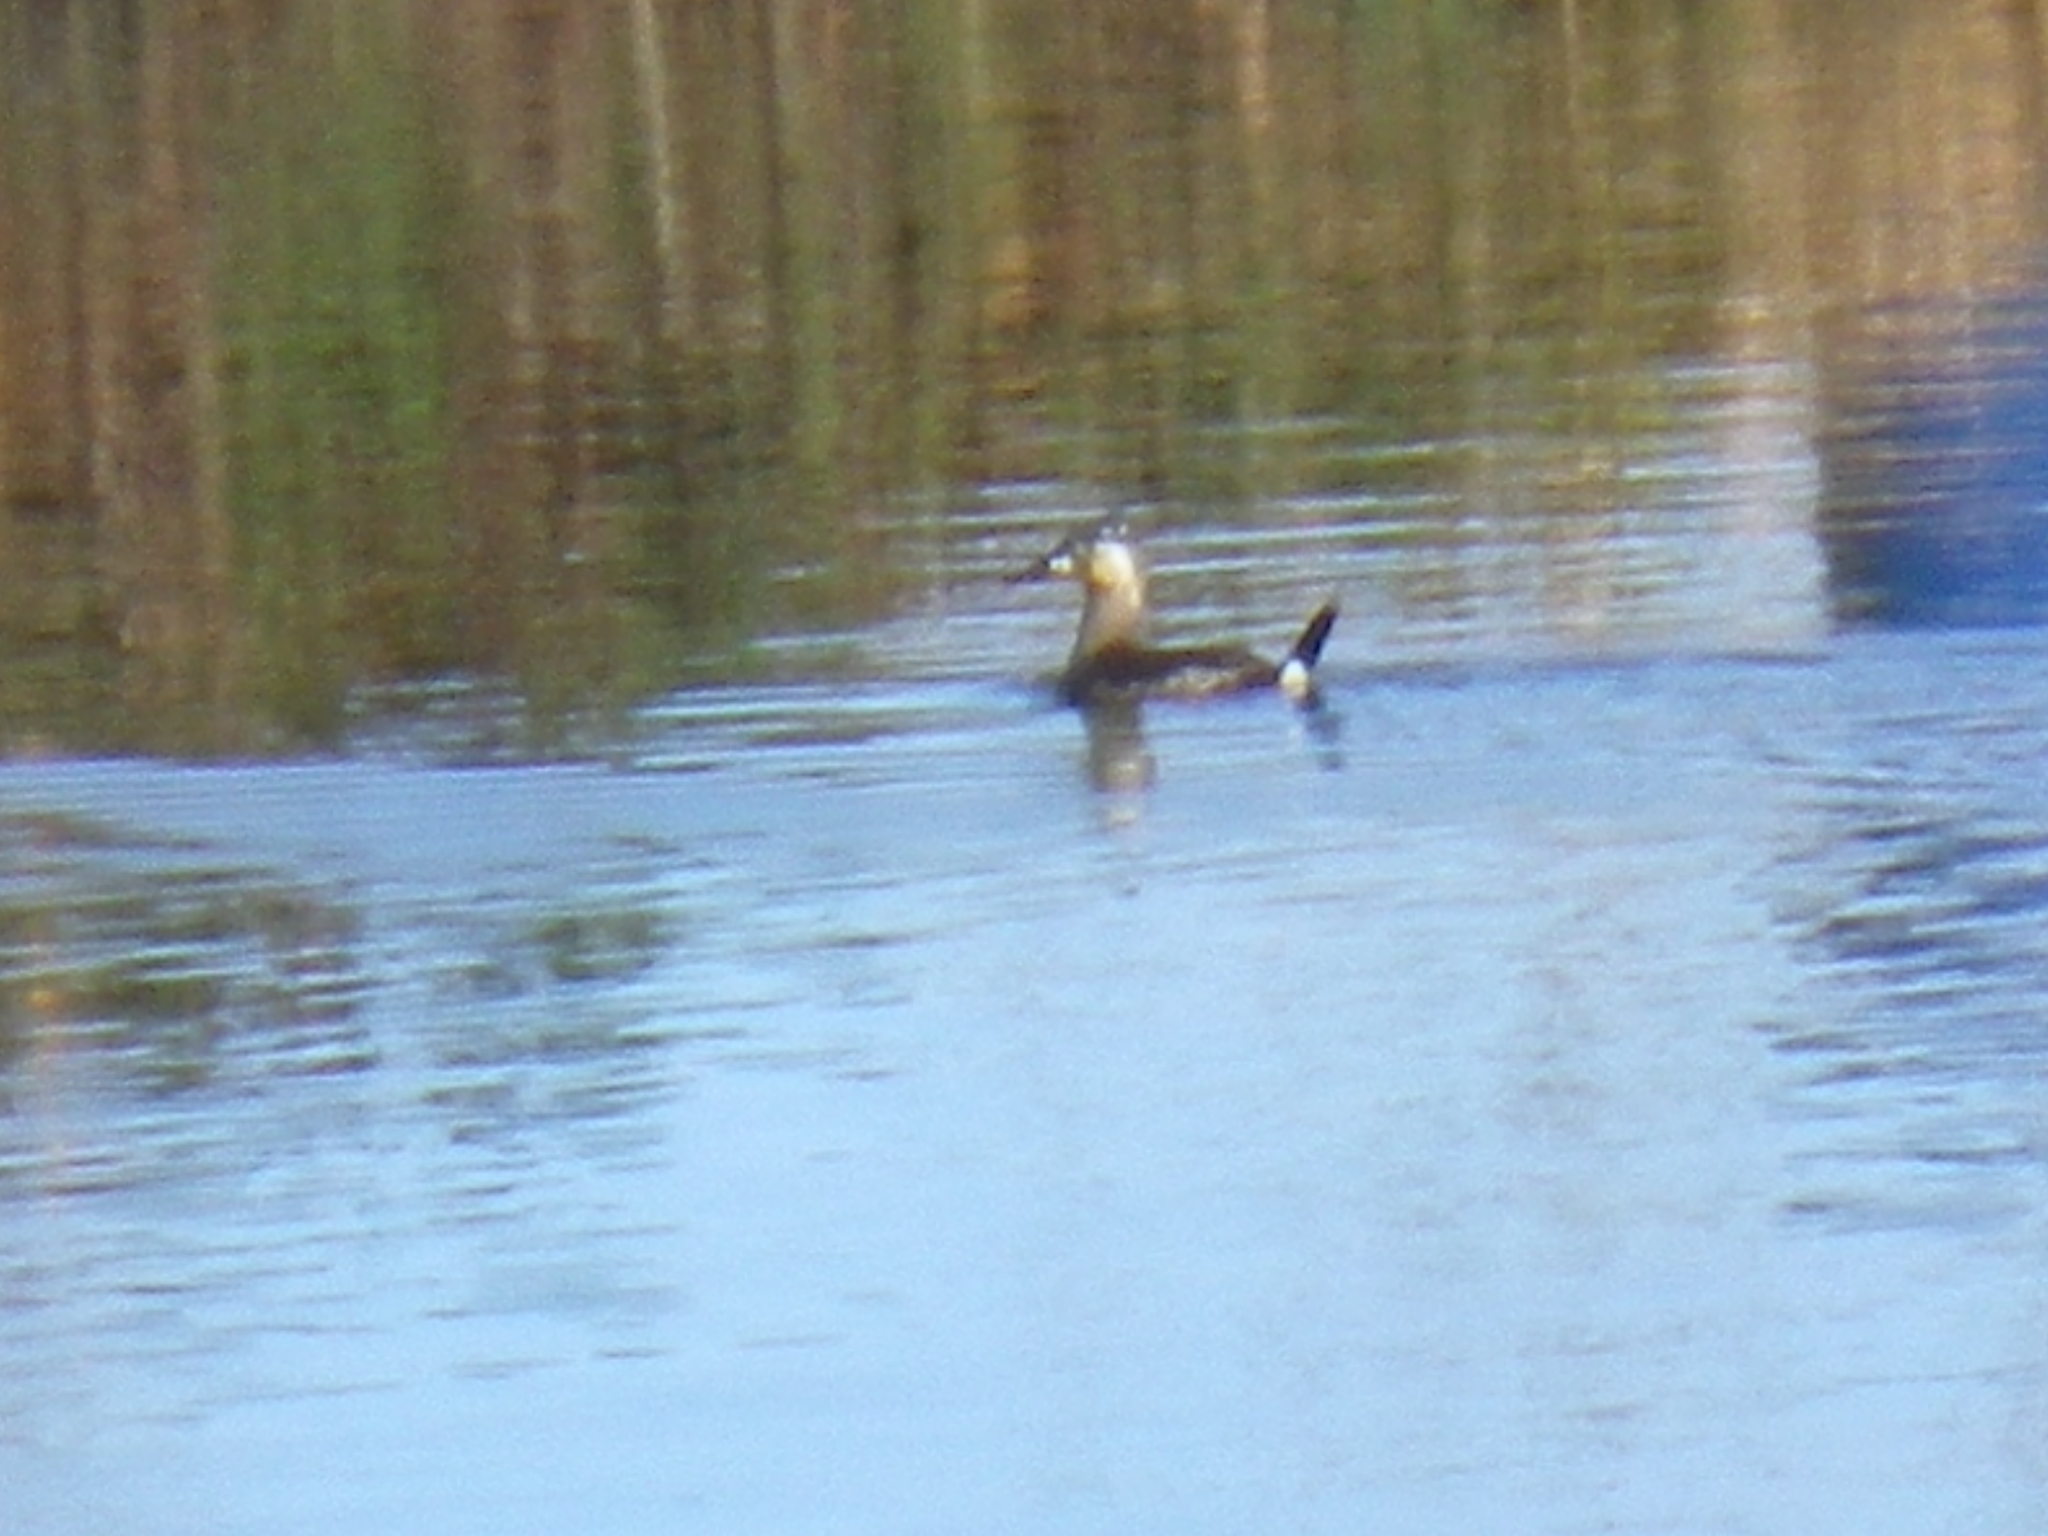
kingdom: Animalia
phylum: Chordata
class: Aves
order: Anseriformes
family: Anatidae
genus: Oxyura
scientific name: Oxyura jamaicensis
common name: Ruddy duck
